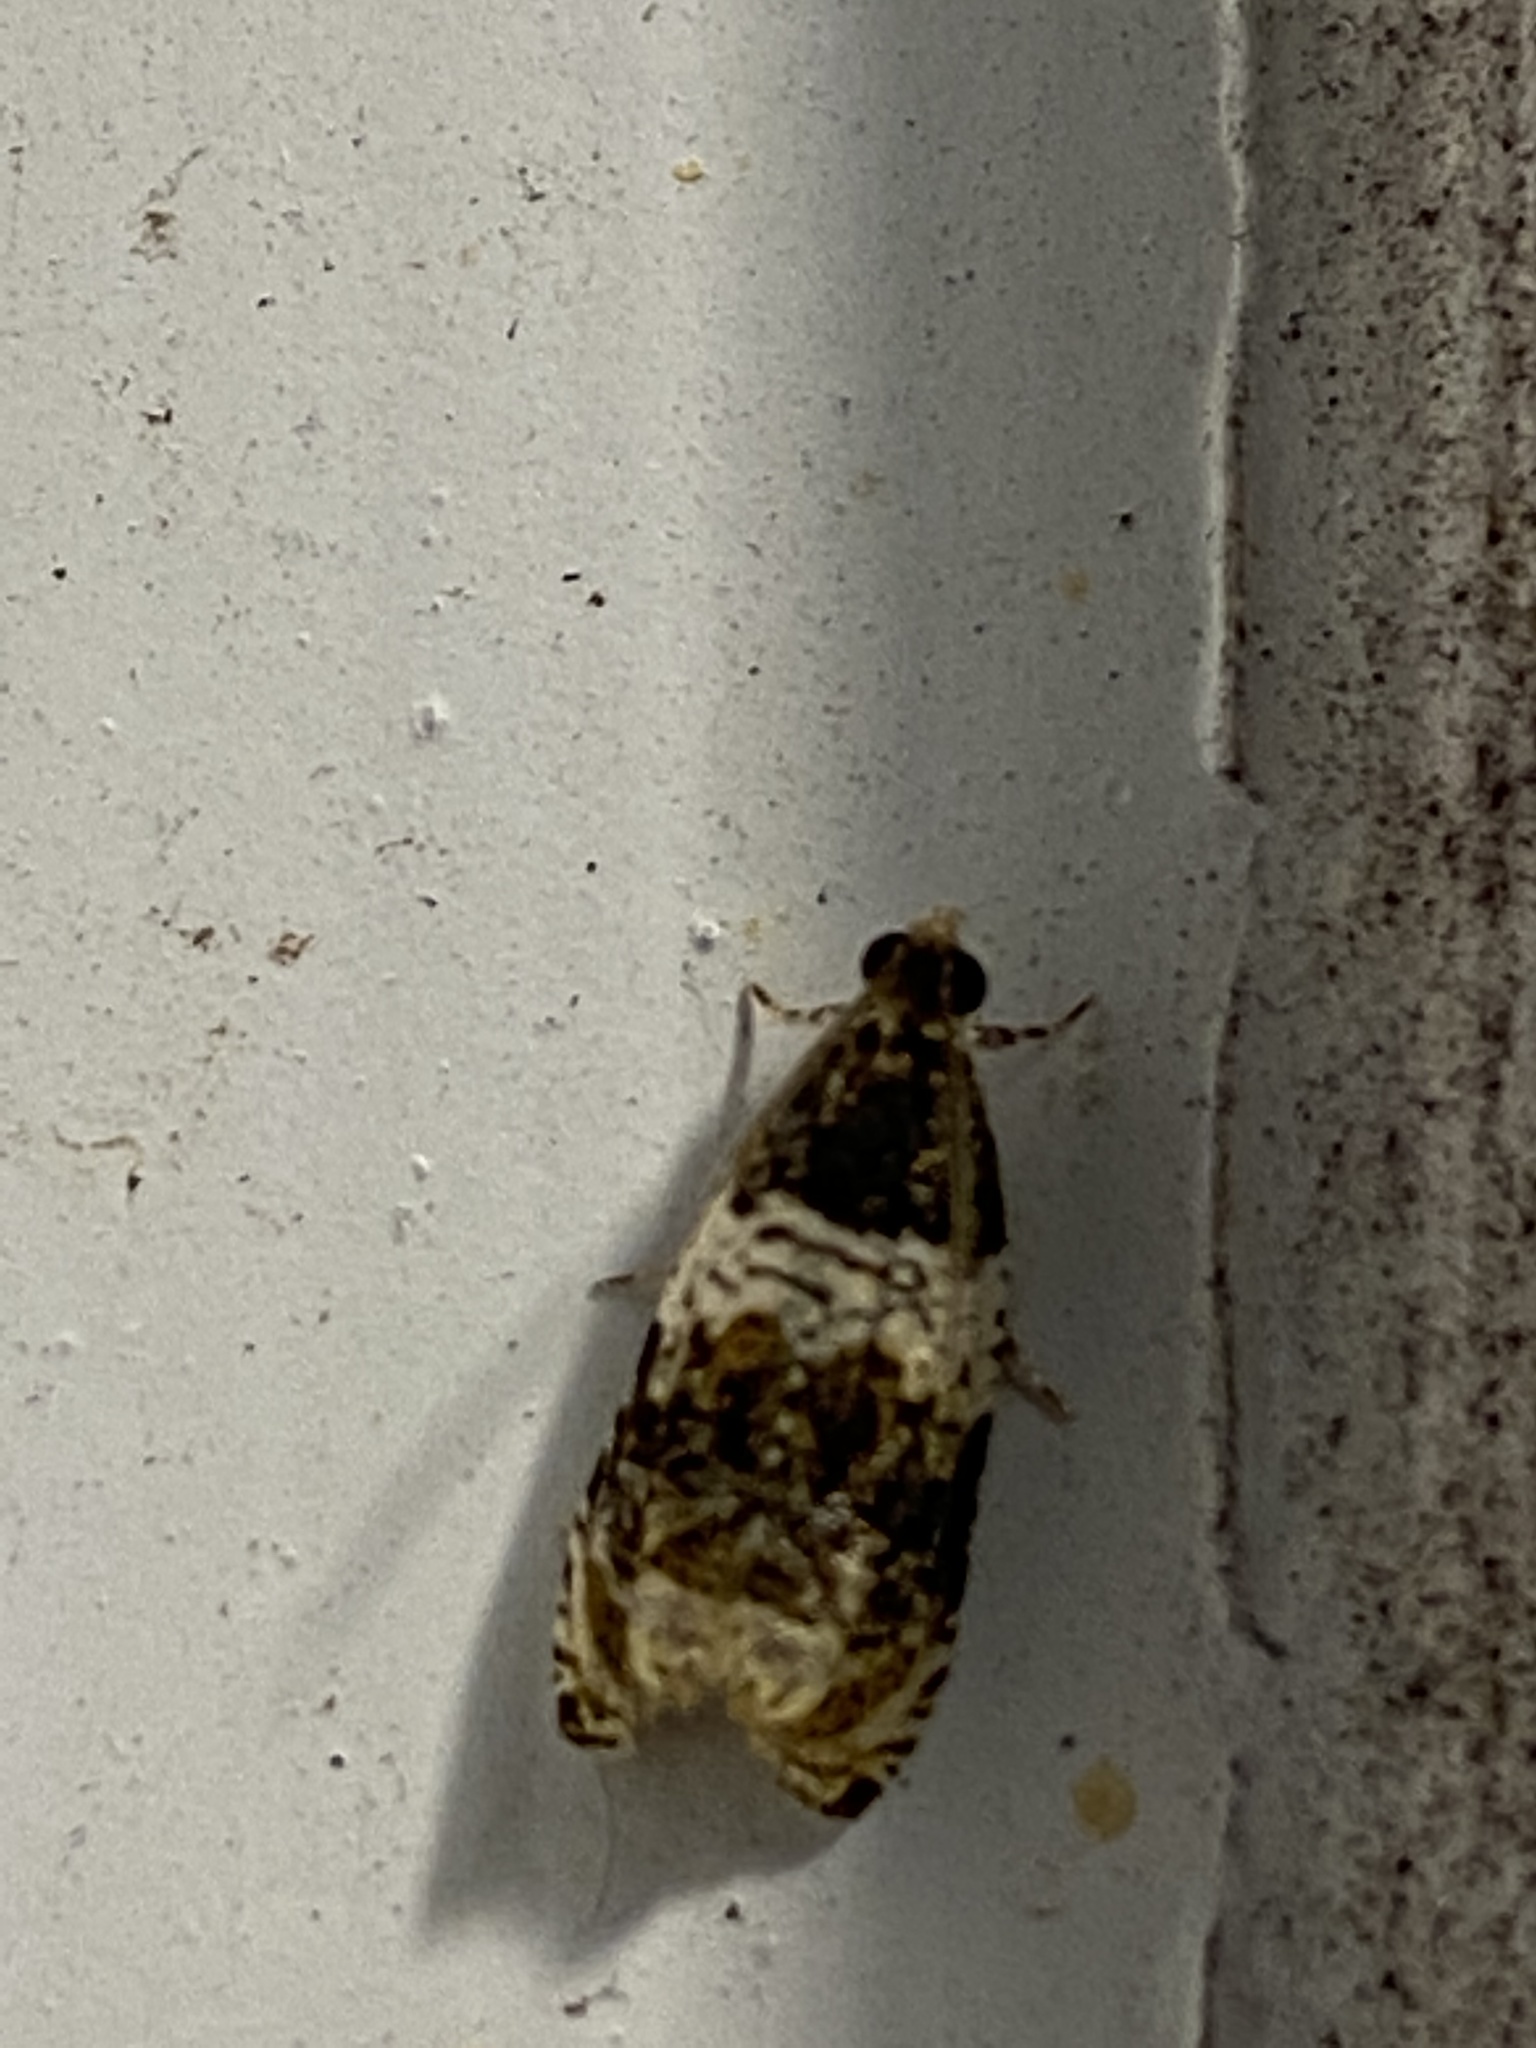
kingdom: Animalia
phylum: Arthropoda
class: Insecta
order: Lepidoptera
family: Tortricidae
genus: Olethreutes
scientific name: Olethreutes fasciatana
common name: Banded olethreutes moth
